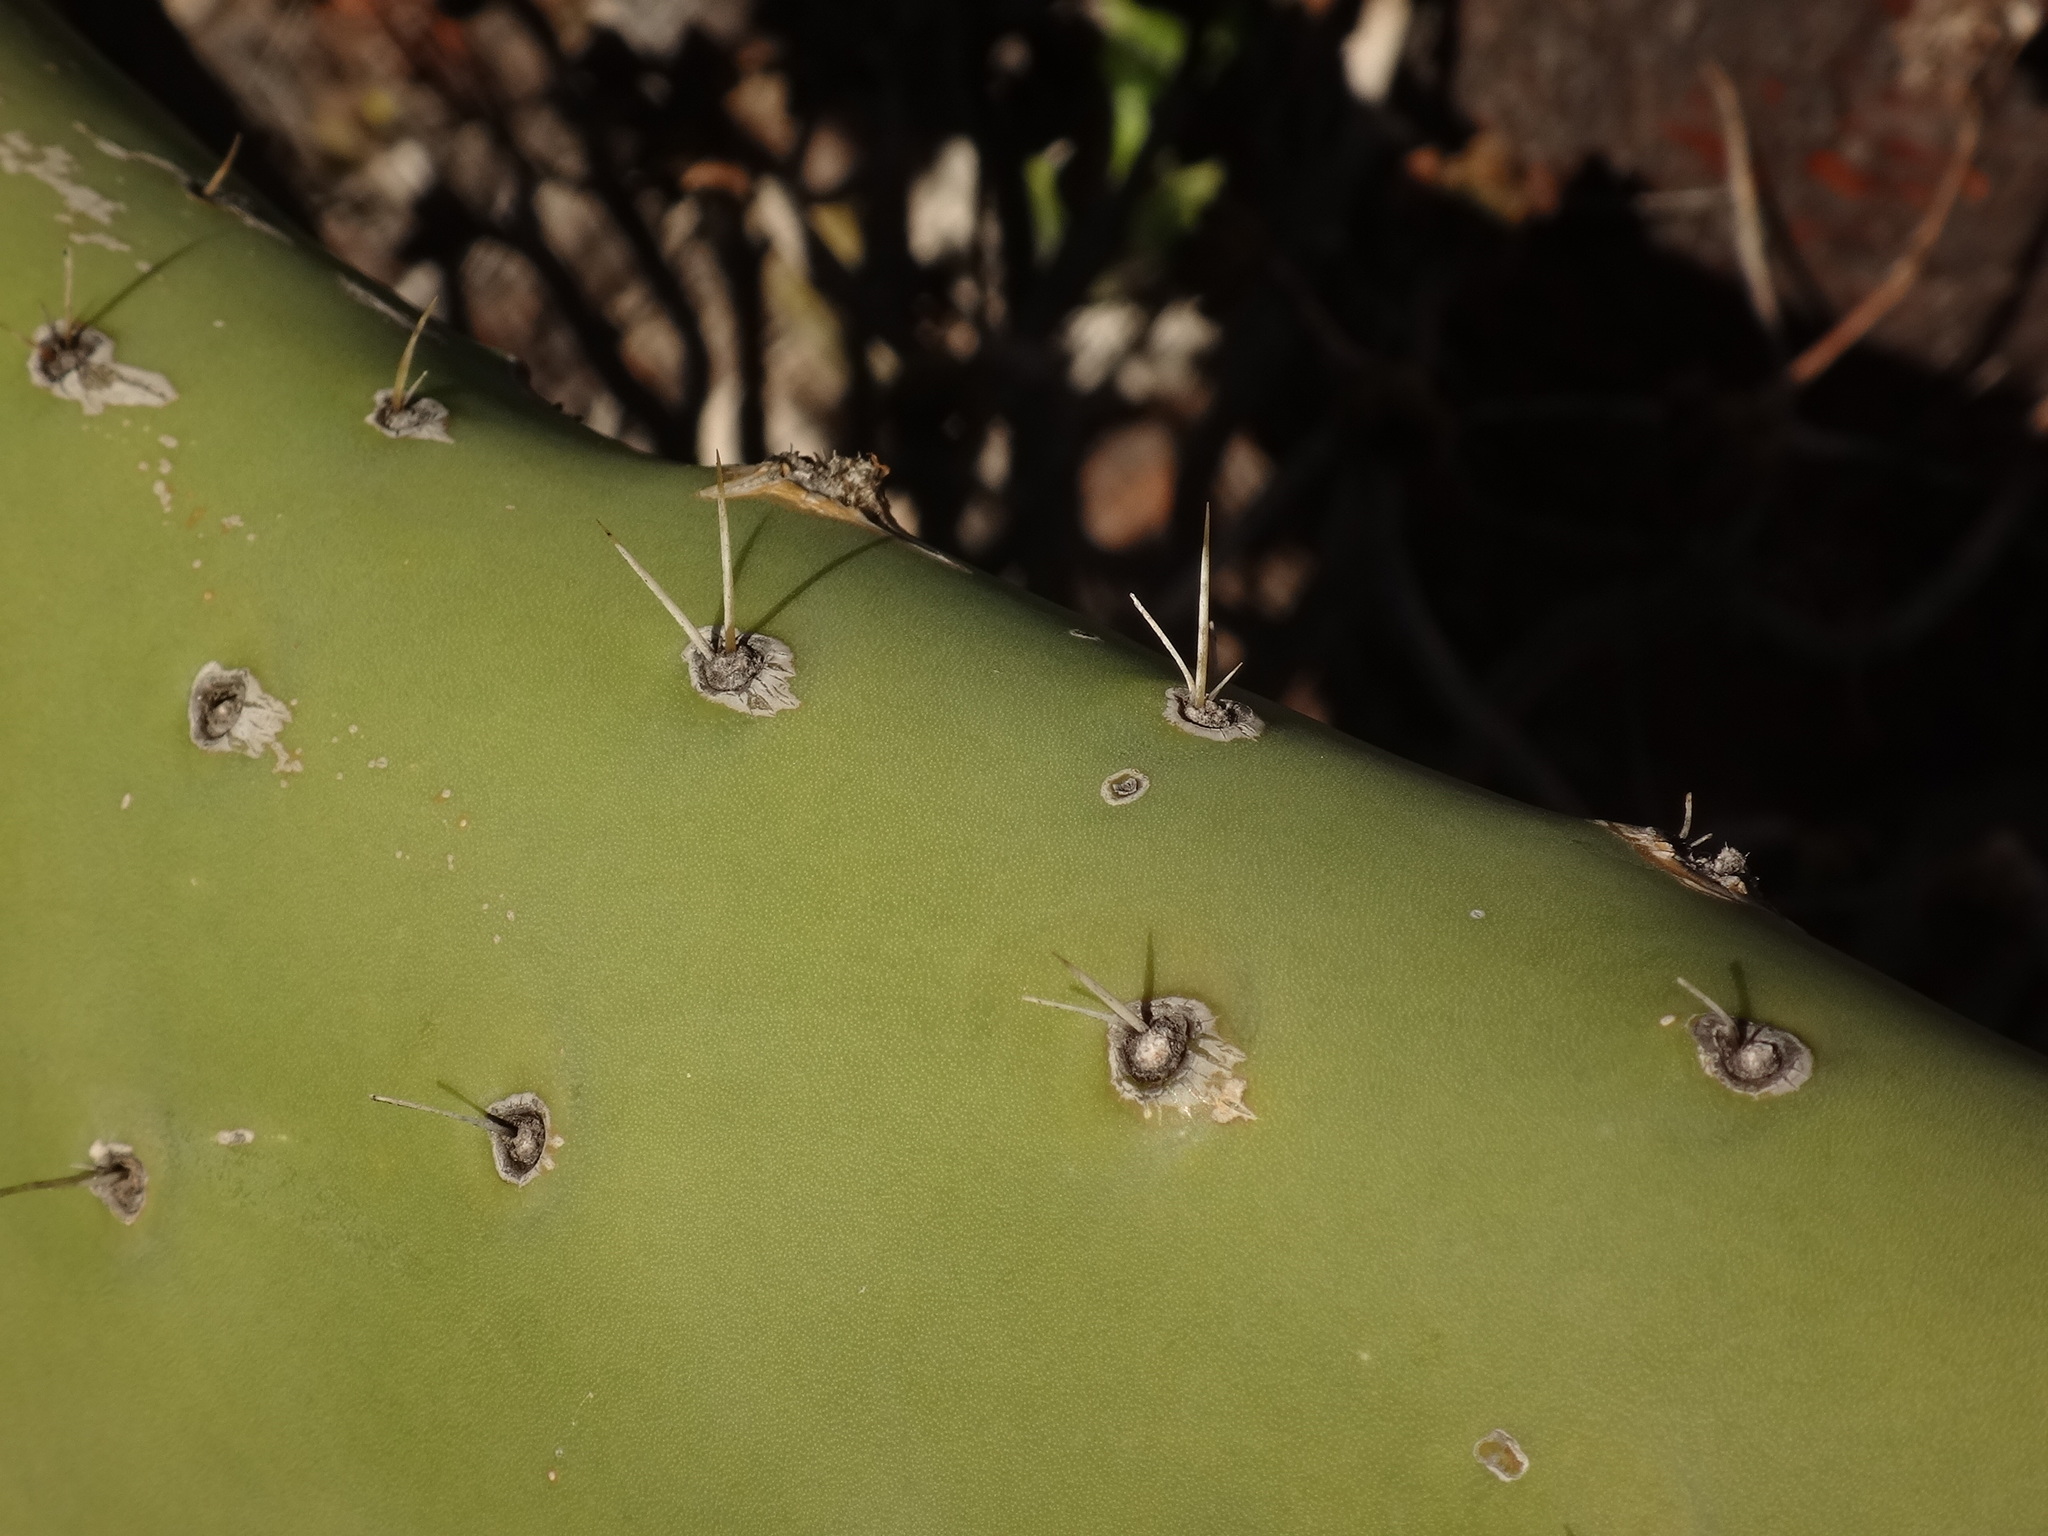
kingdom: Plantae
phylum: Tracheophyta
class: Magnoliopsida
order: Caryophyllales
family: Cactaceae
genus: Opuntia
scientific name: Opuntia ficus-indica
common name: Barbary fig
